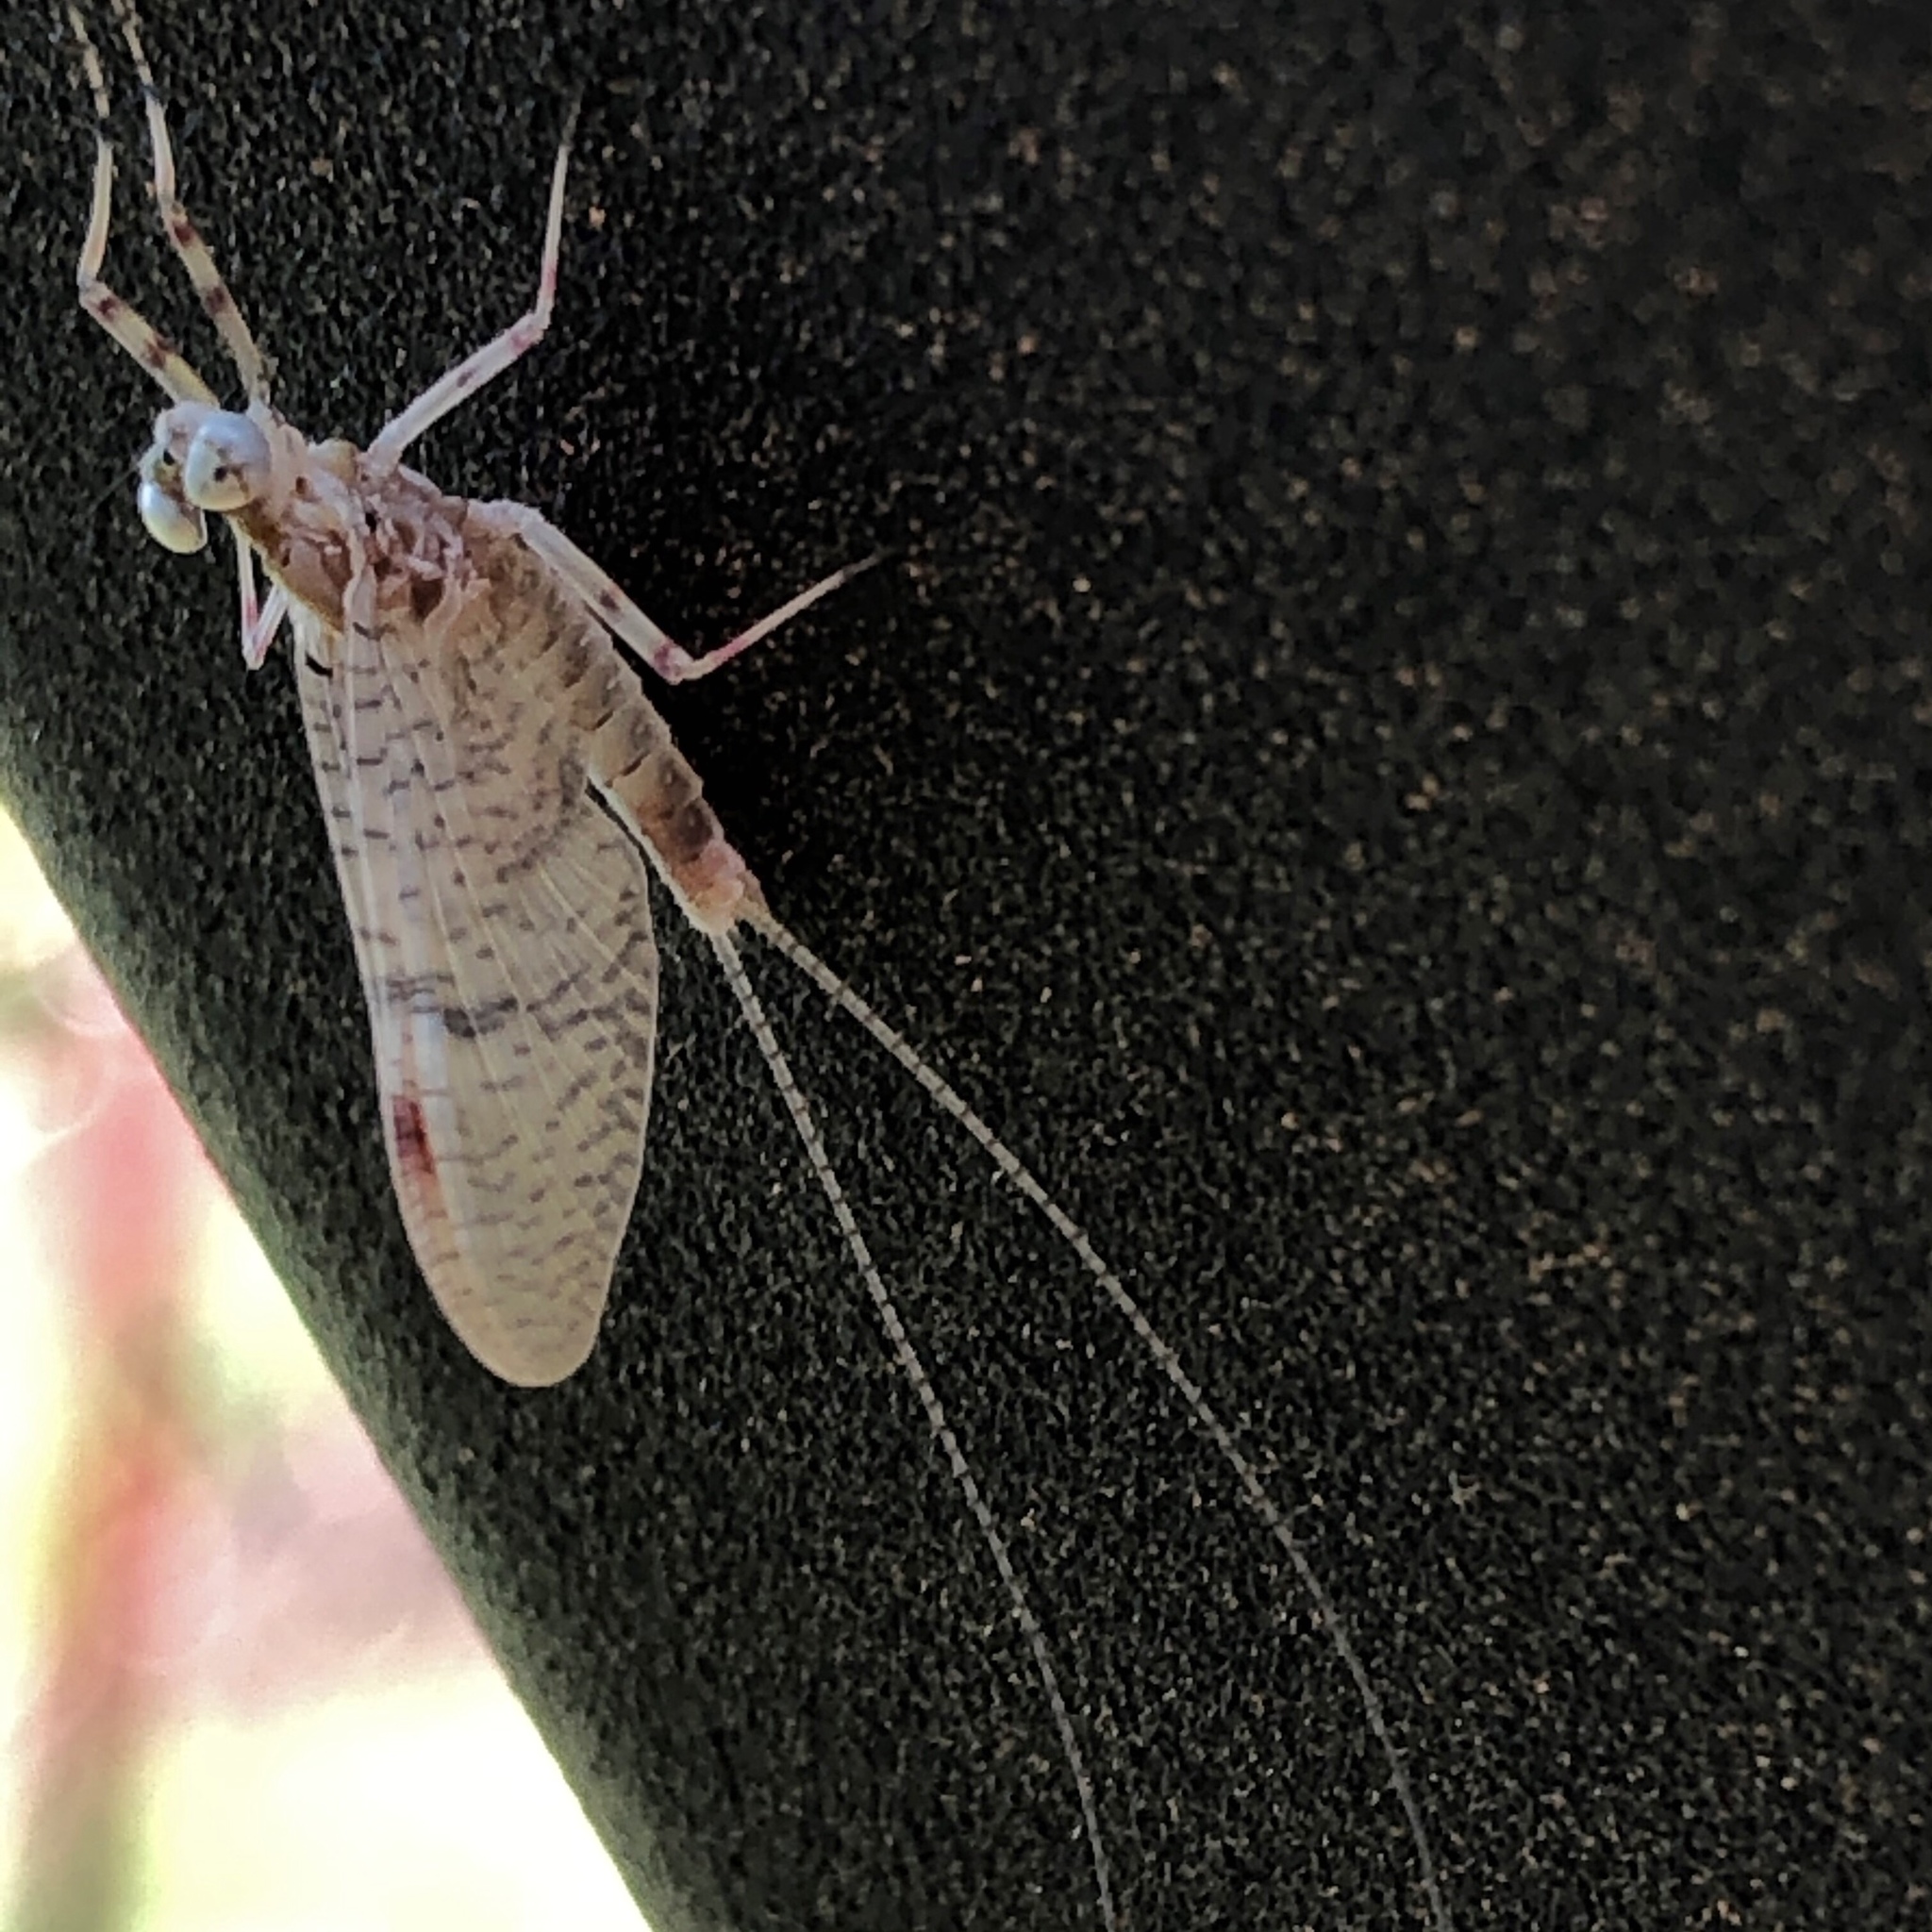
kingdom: Animalia
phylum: Arthropoda
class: Insecta
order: Ephemeroptera
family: Heptageniidae
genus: Stenonema
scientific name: Stenonema femoratum
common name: Dark cahill
